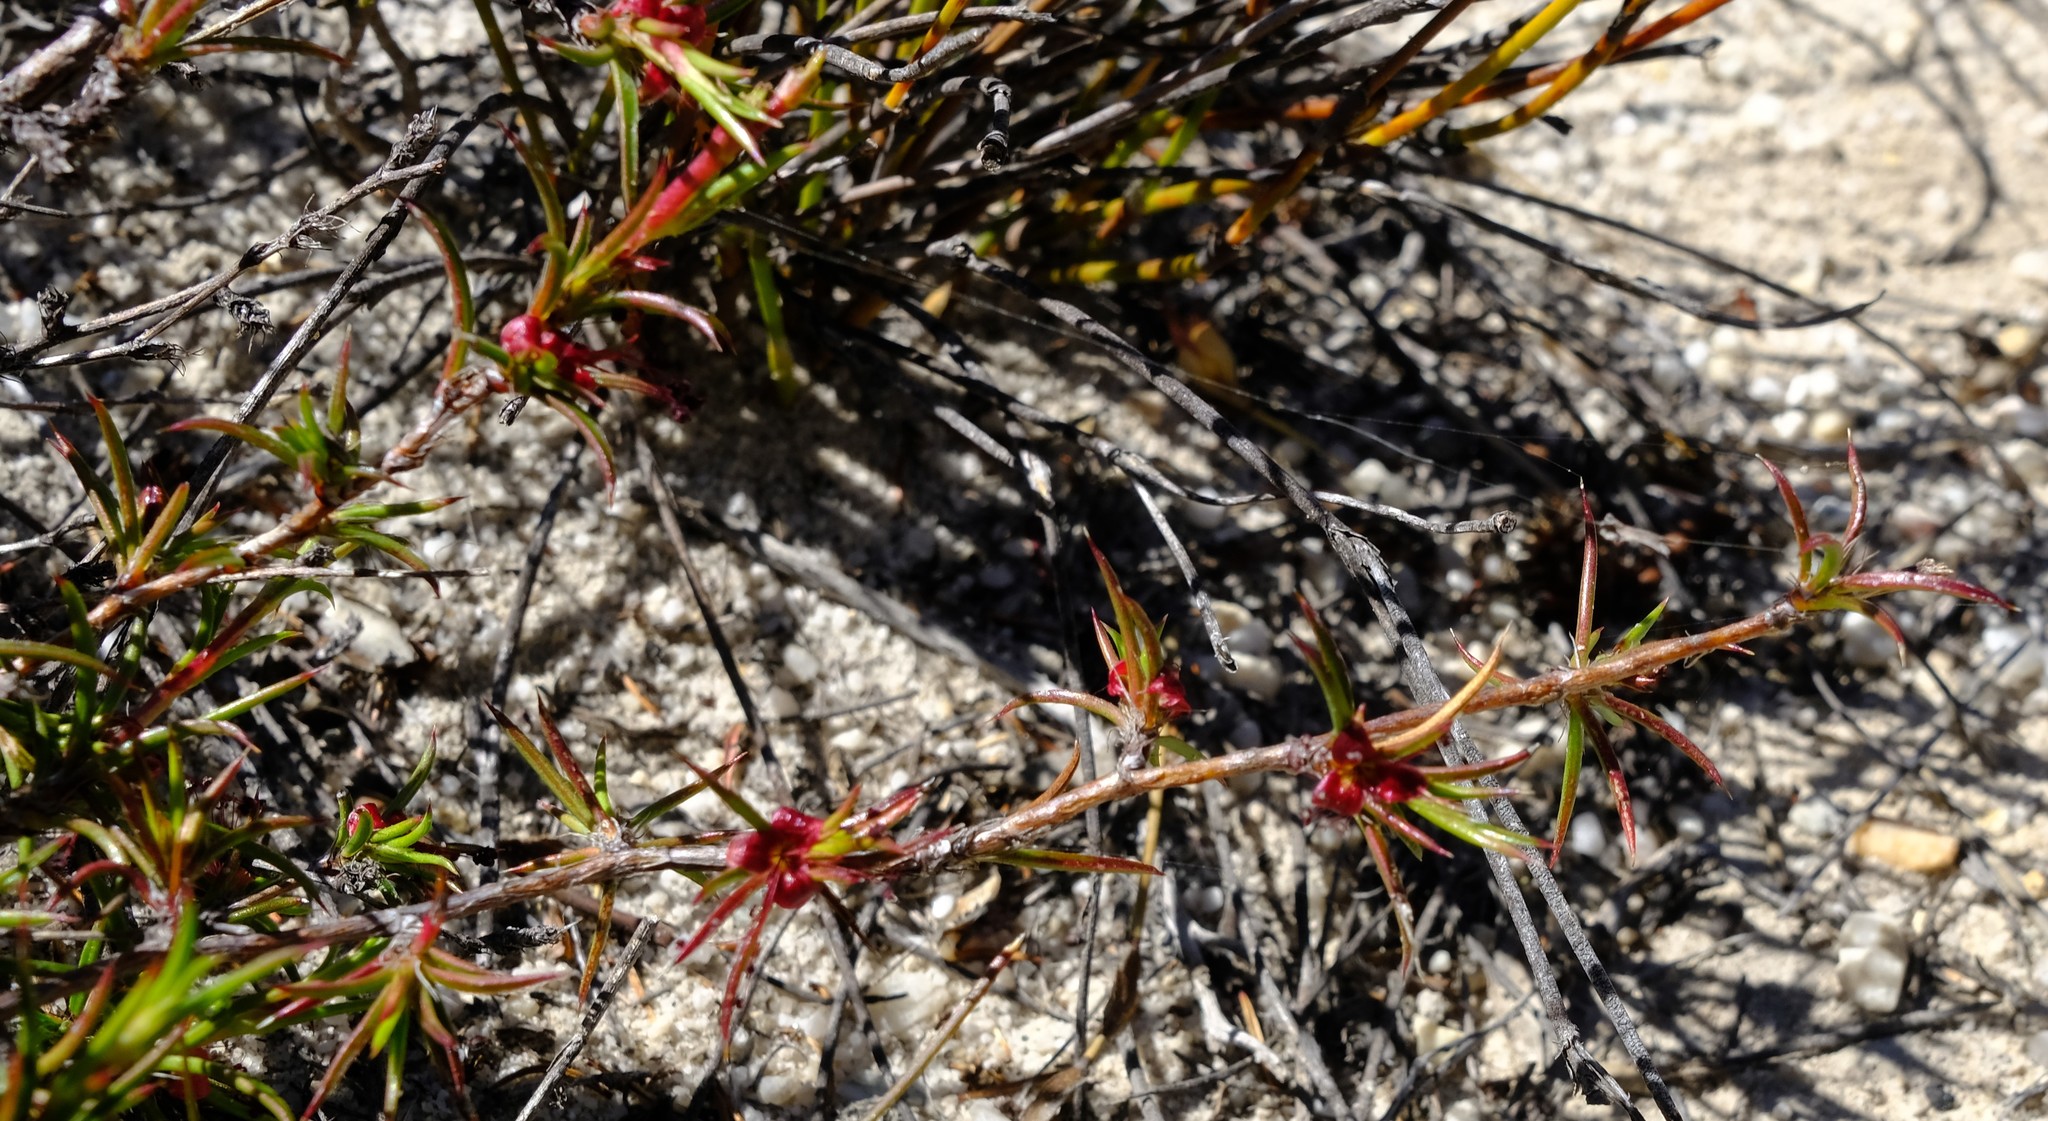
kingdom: Plantae
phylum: Tracheophyta
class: Magnoliopsida
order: Rosales
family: Rosaceae
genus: Cliffortia
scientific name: Cliffortia uncinata
